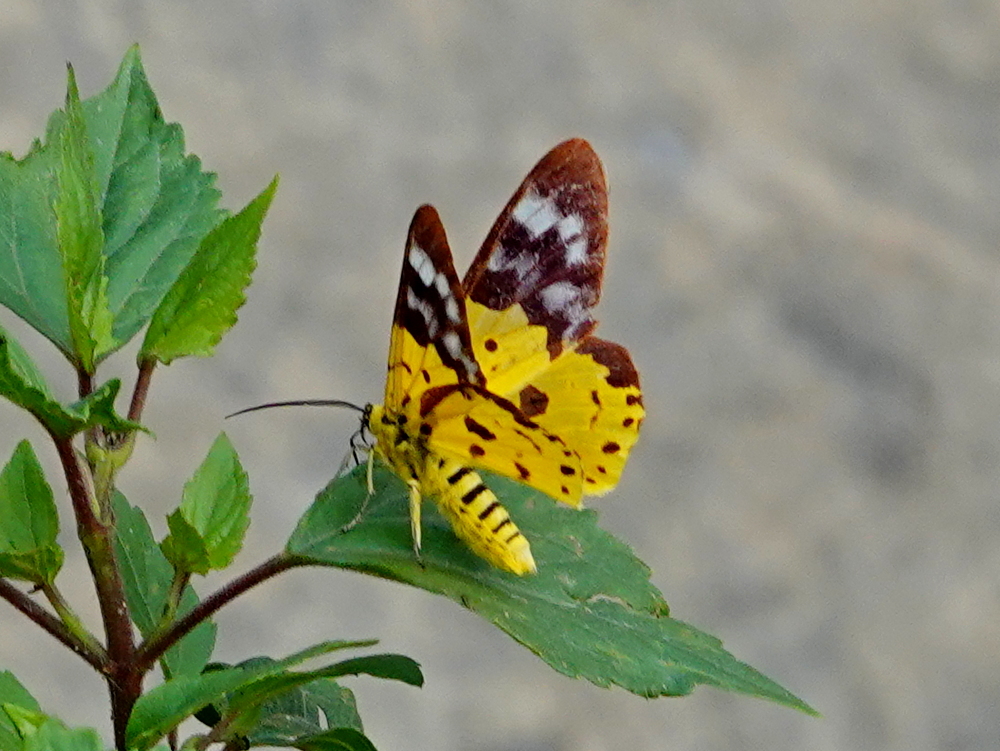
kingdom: Animalia
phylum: Arthropoda
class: Insecta
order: Lepidoptera
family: Geometridae
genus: Dysphania
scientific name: Dysphania militaris
